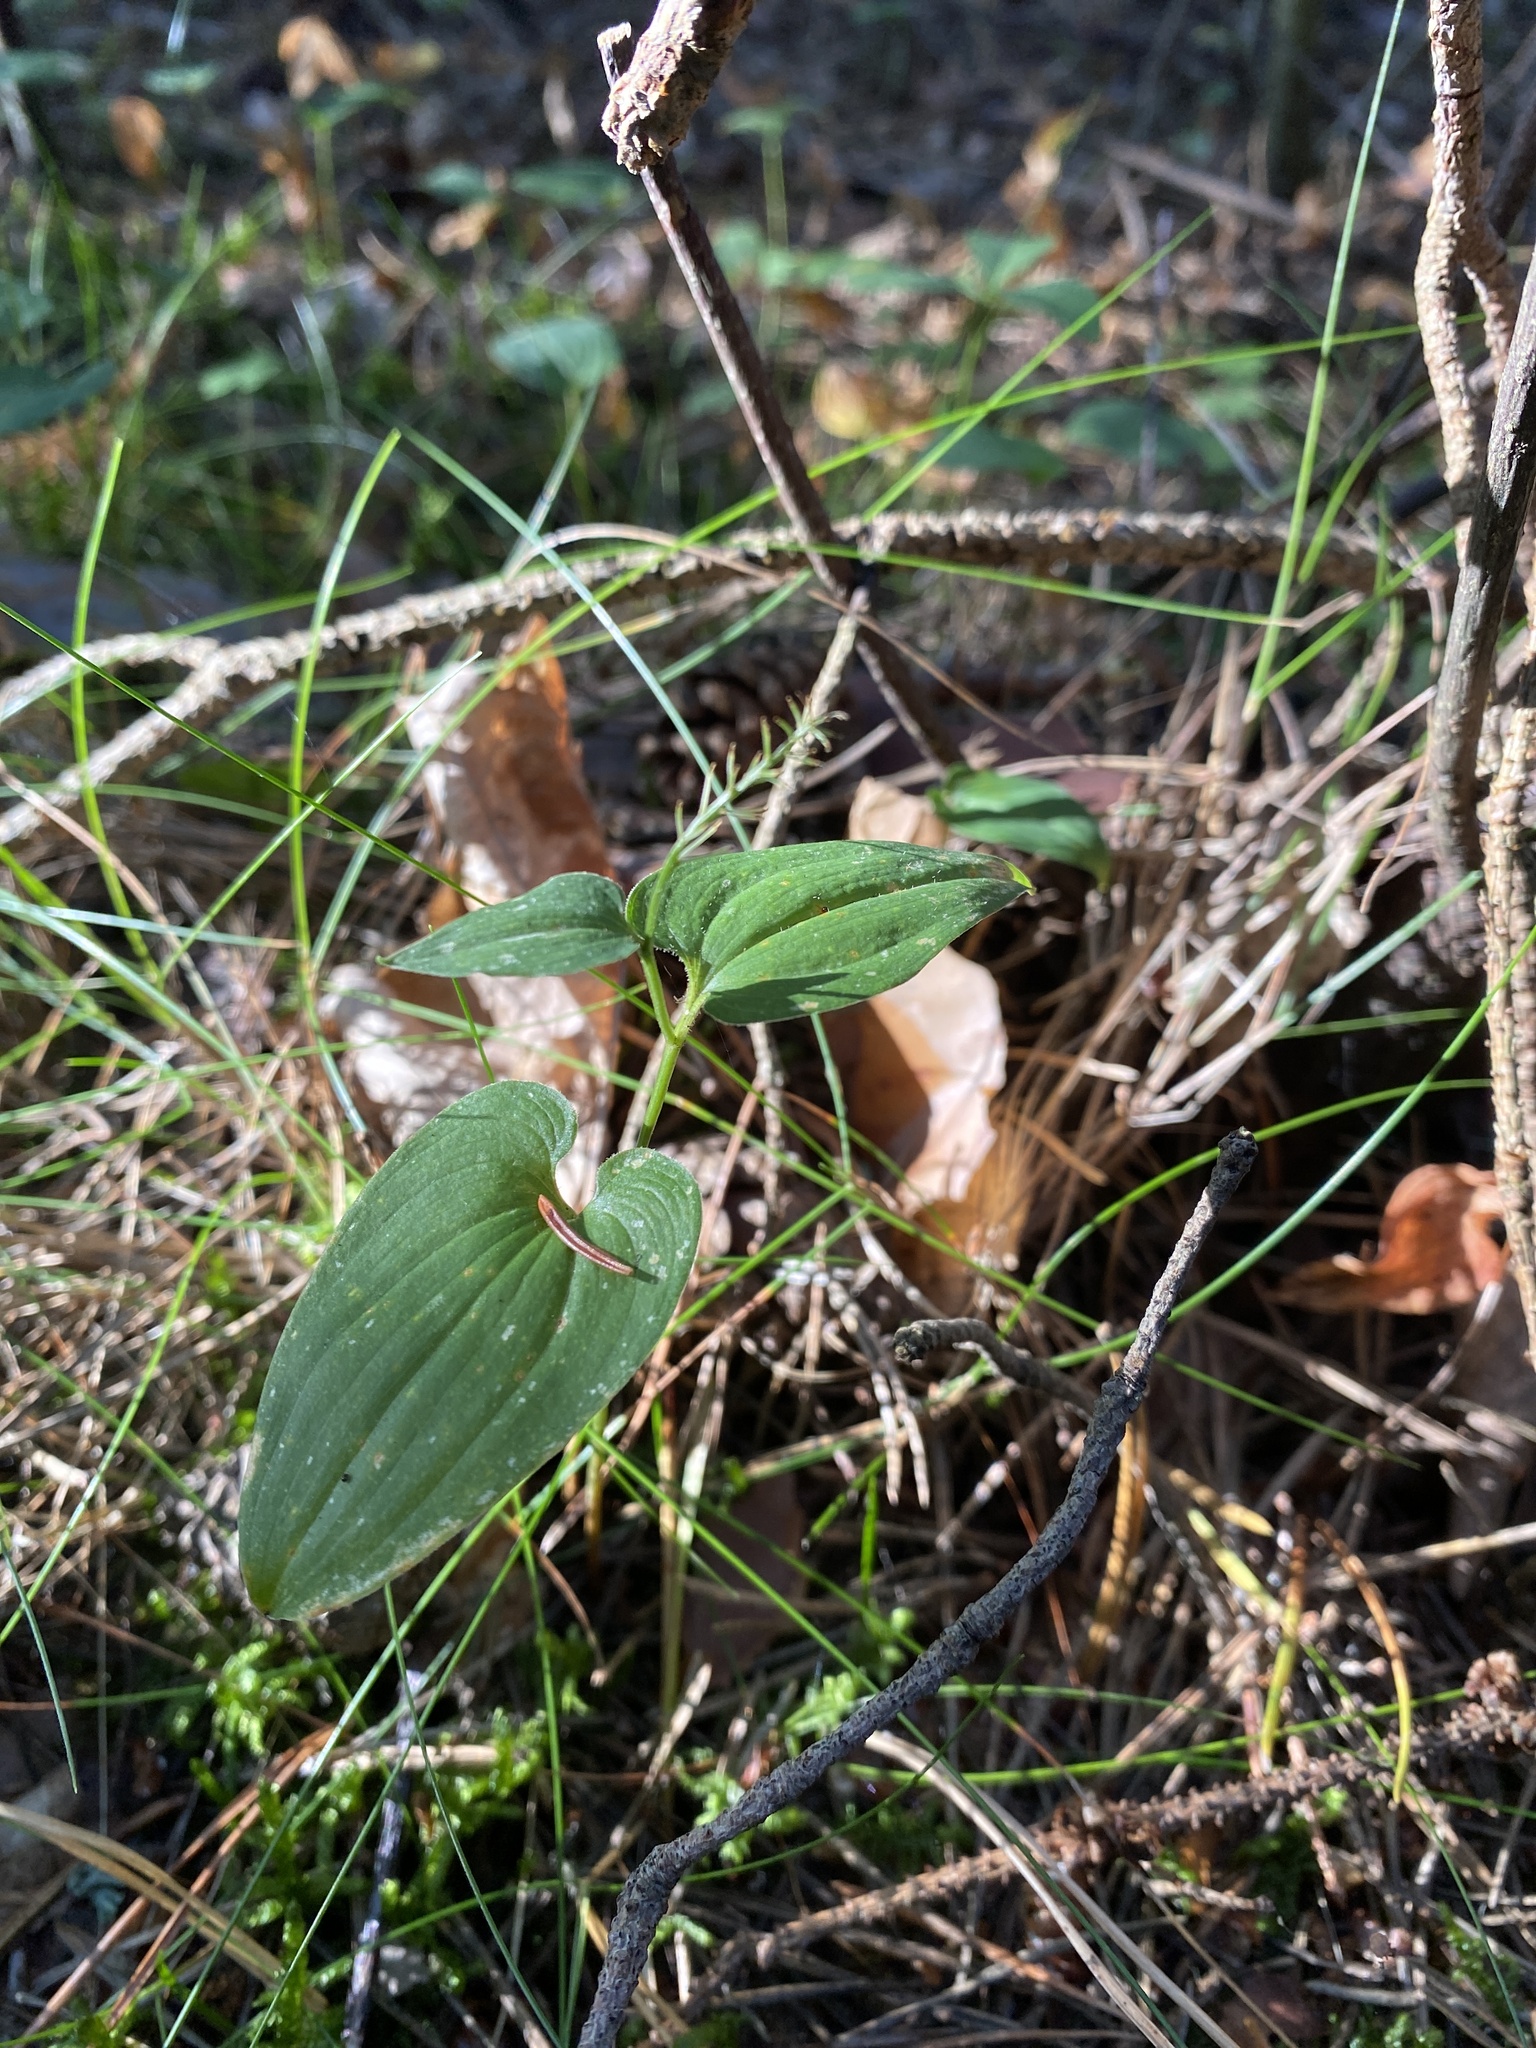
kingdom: Plantae
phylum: Tracheophyta
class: Liliopsida
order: Asparagales
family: Asparagaceae
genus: Maianthemum
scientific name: Maianthemum bifolium
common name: May lily
